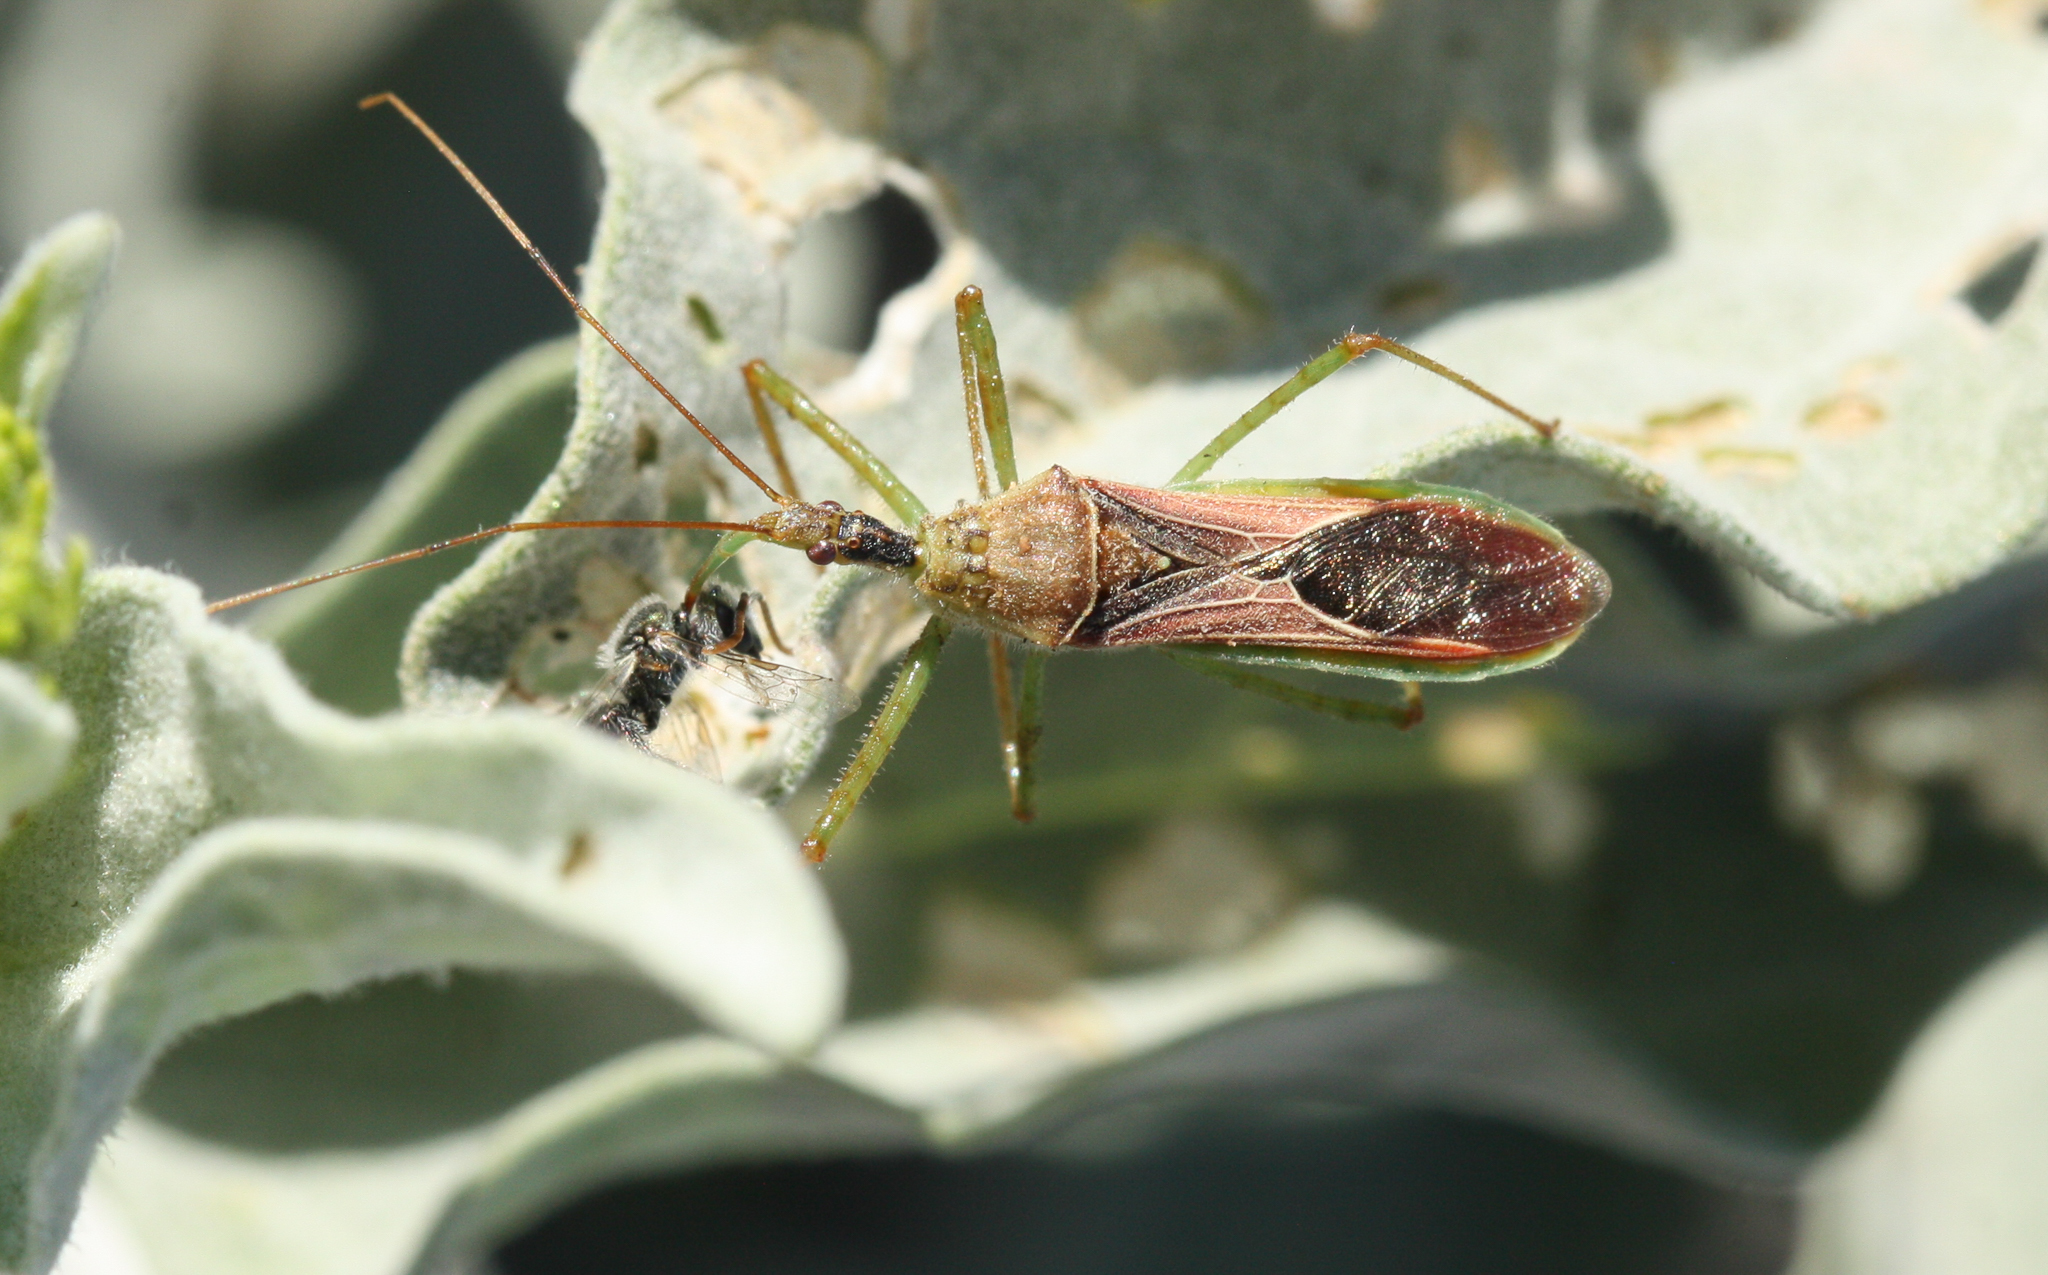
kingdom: Animalia
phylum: Arthropoda
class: Insecta
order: Hemiptera
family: Reduviidae
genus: Zelus
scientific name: Zelus renardii
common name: Assassin bug
